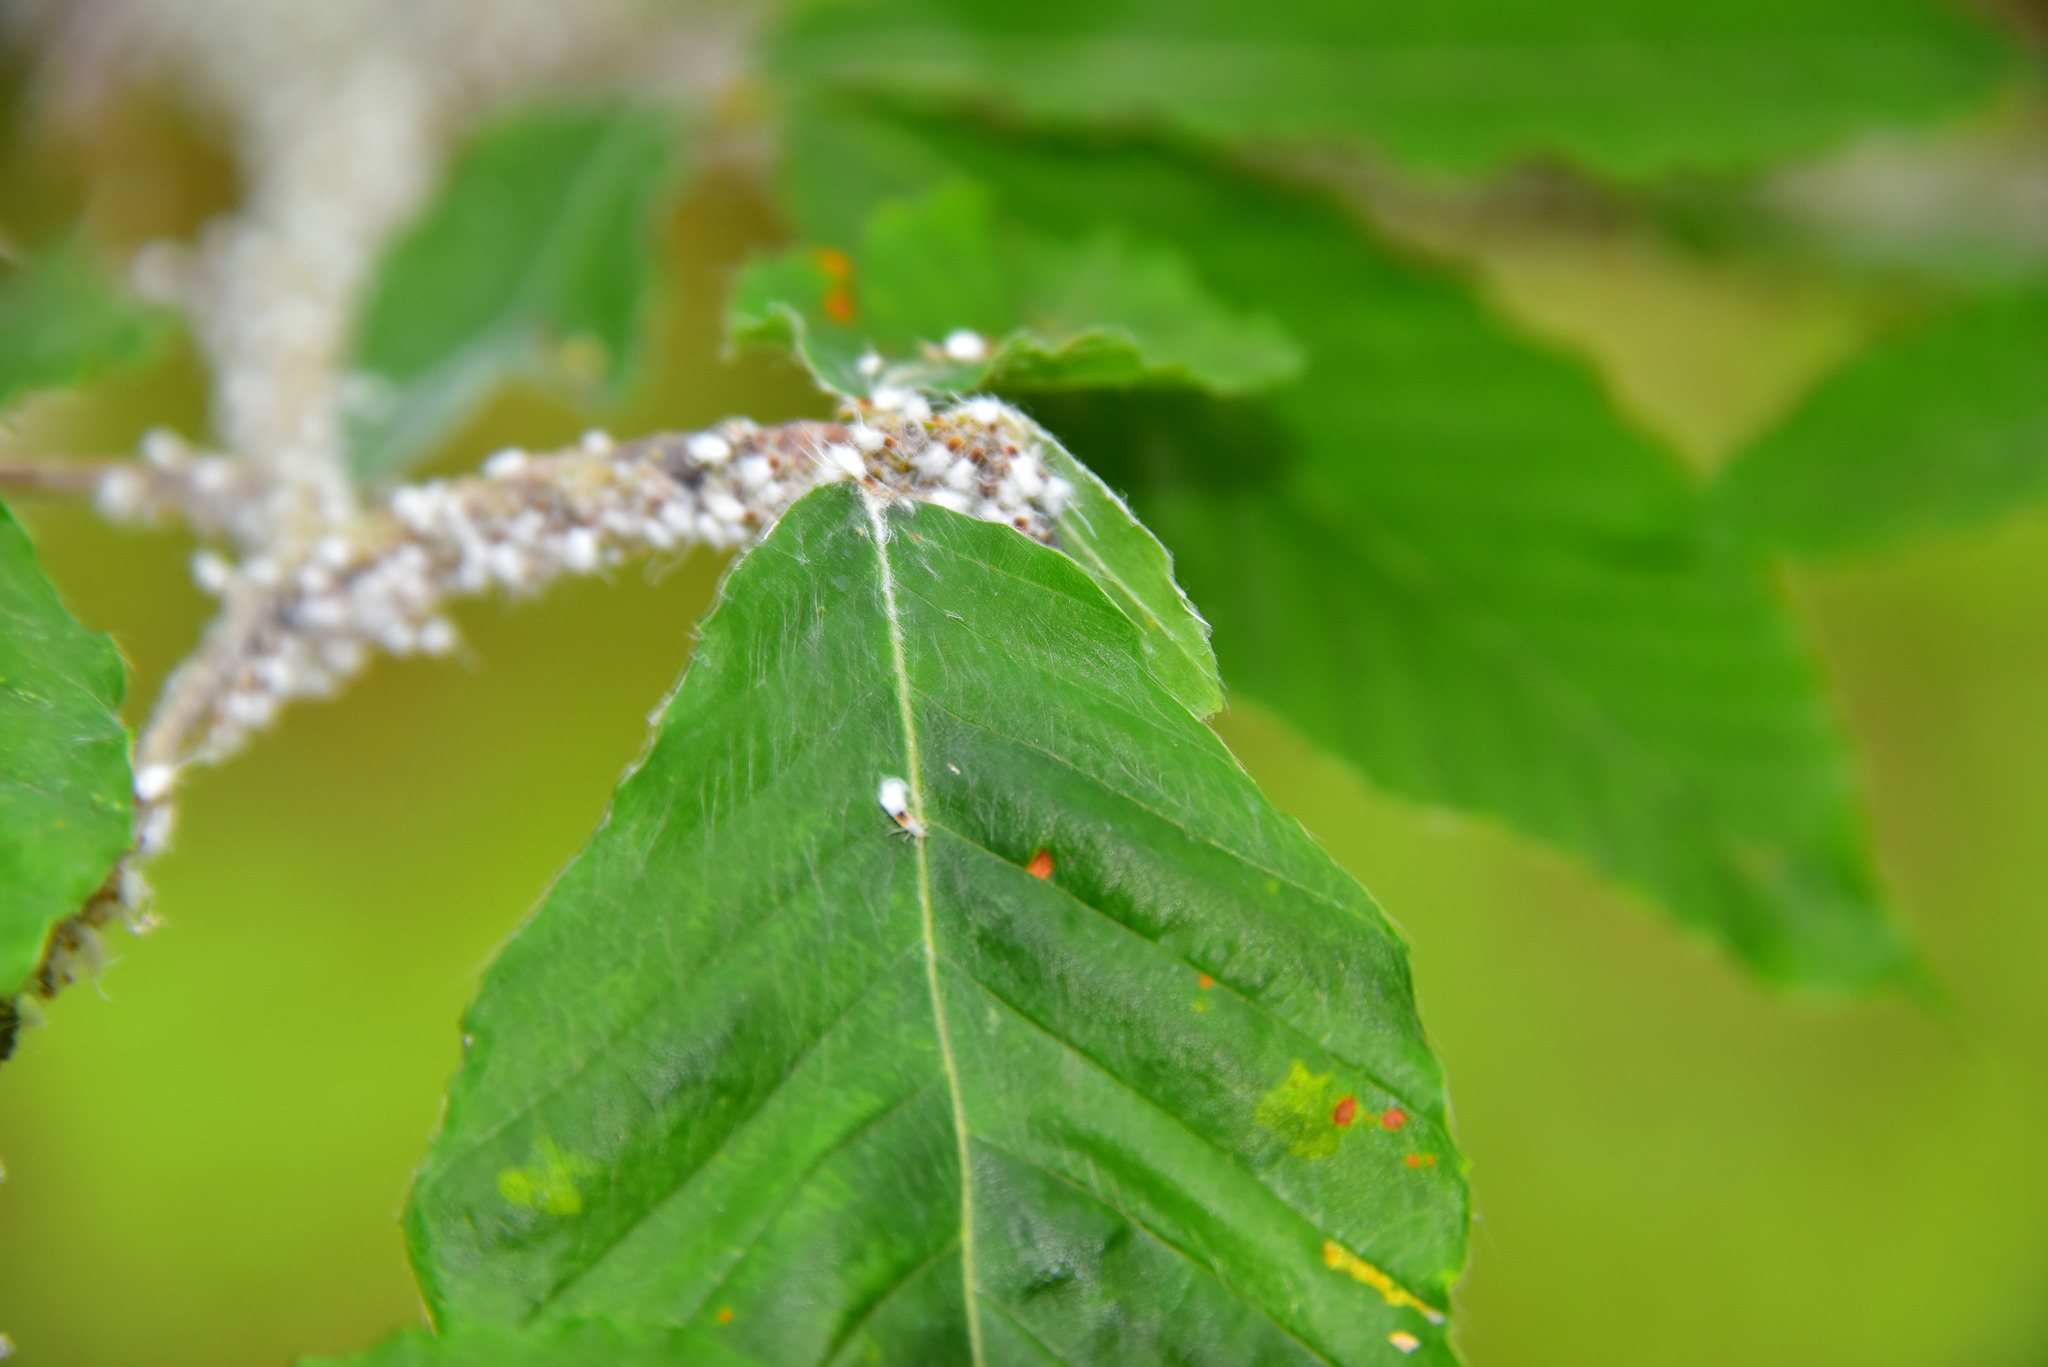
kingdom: Animalia
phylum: Arthropoda
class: Insecta
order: Hemiptera
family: Aphididae
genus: Grylloprociphilus
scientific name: Grylloprociphilus imbricator
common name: Beech blight aphid
